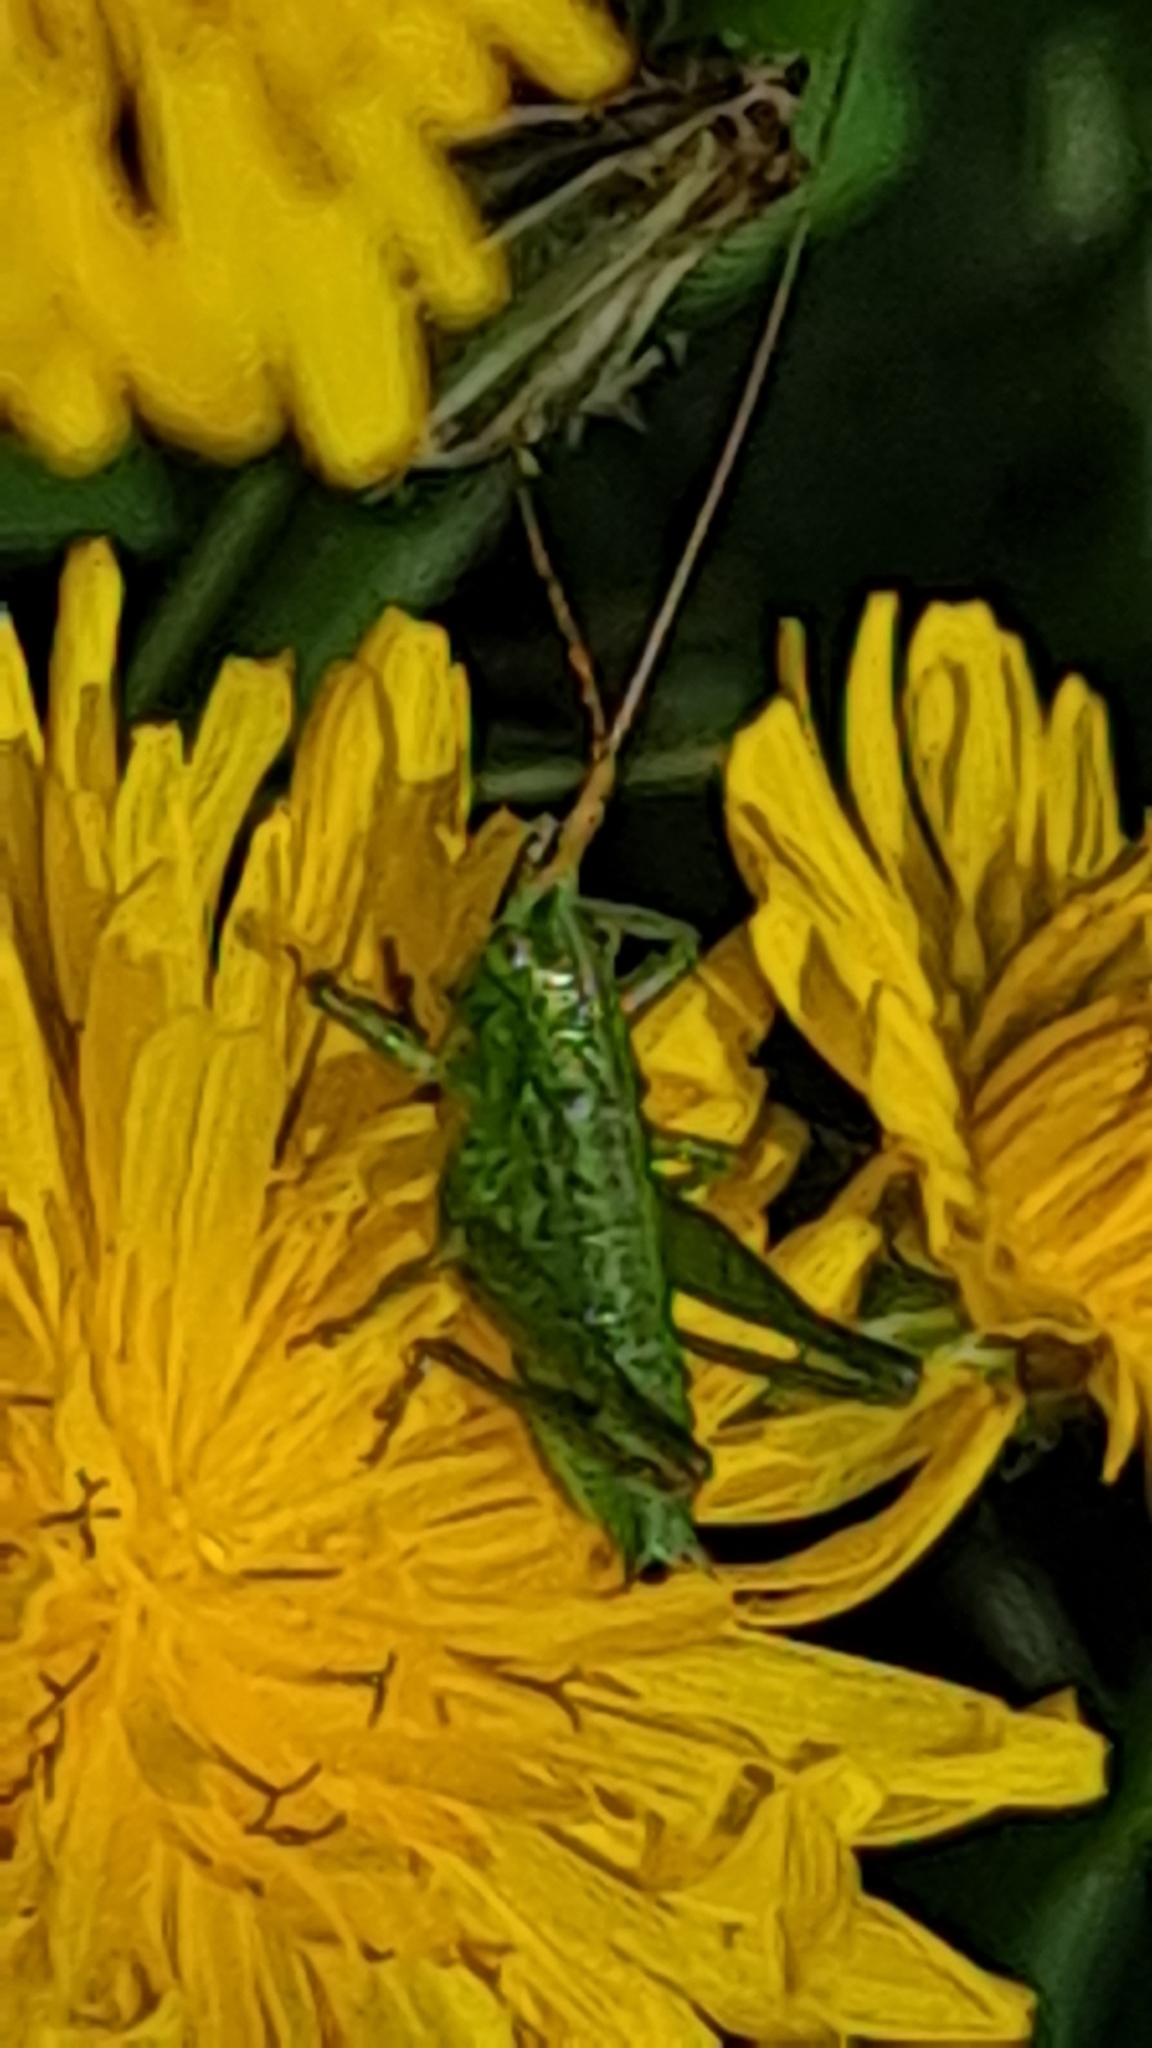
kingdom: Animalia
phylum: Arthropoda
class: Insecta
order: Orthoptera
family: Tettigoniidae
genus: Tettigonia
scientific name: Tettigonia viridissima
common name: Great green bush-cricket
